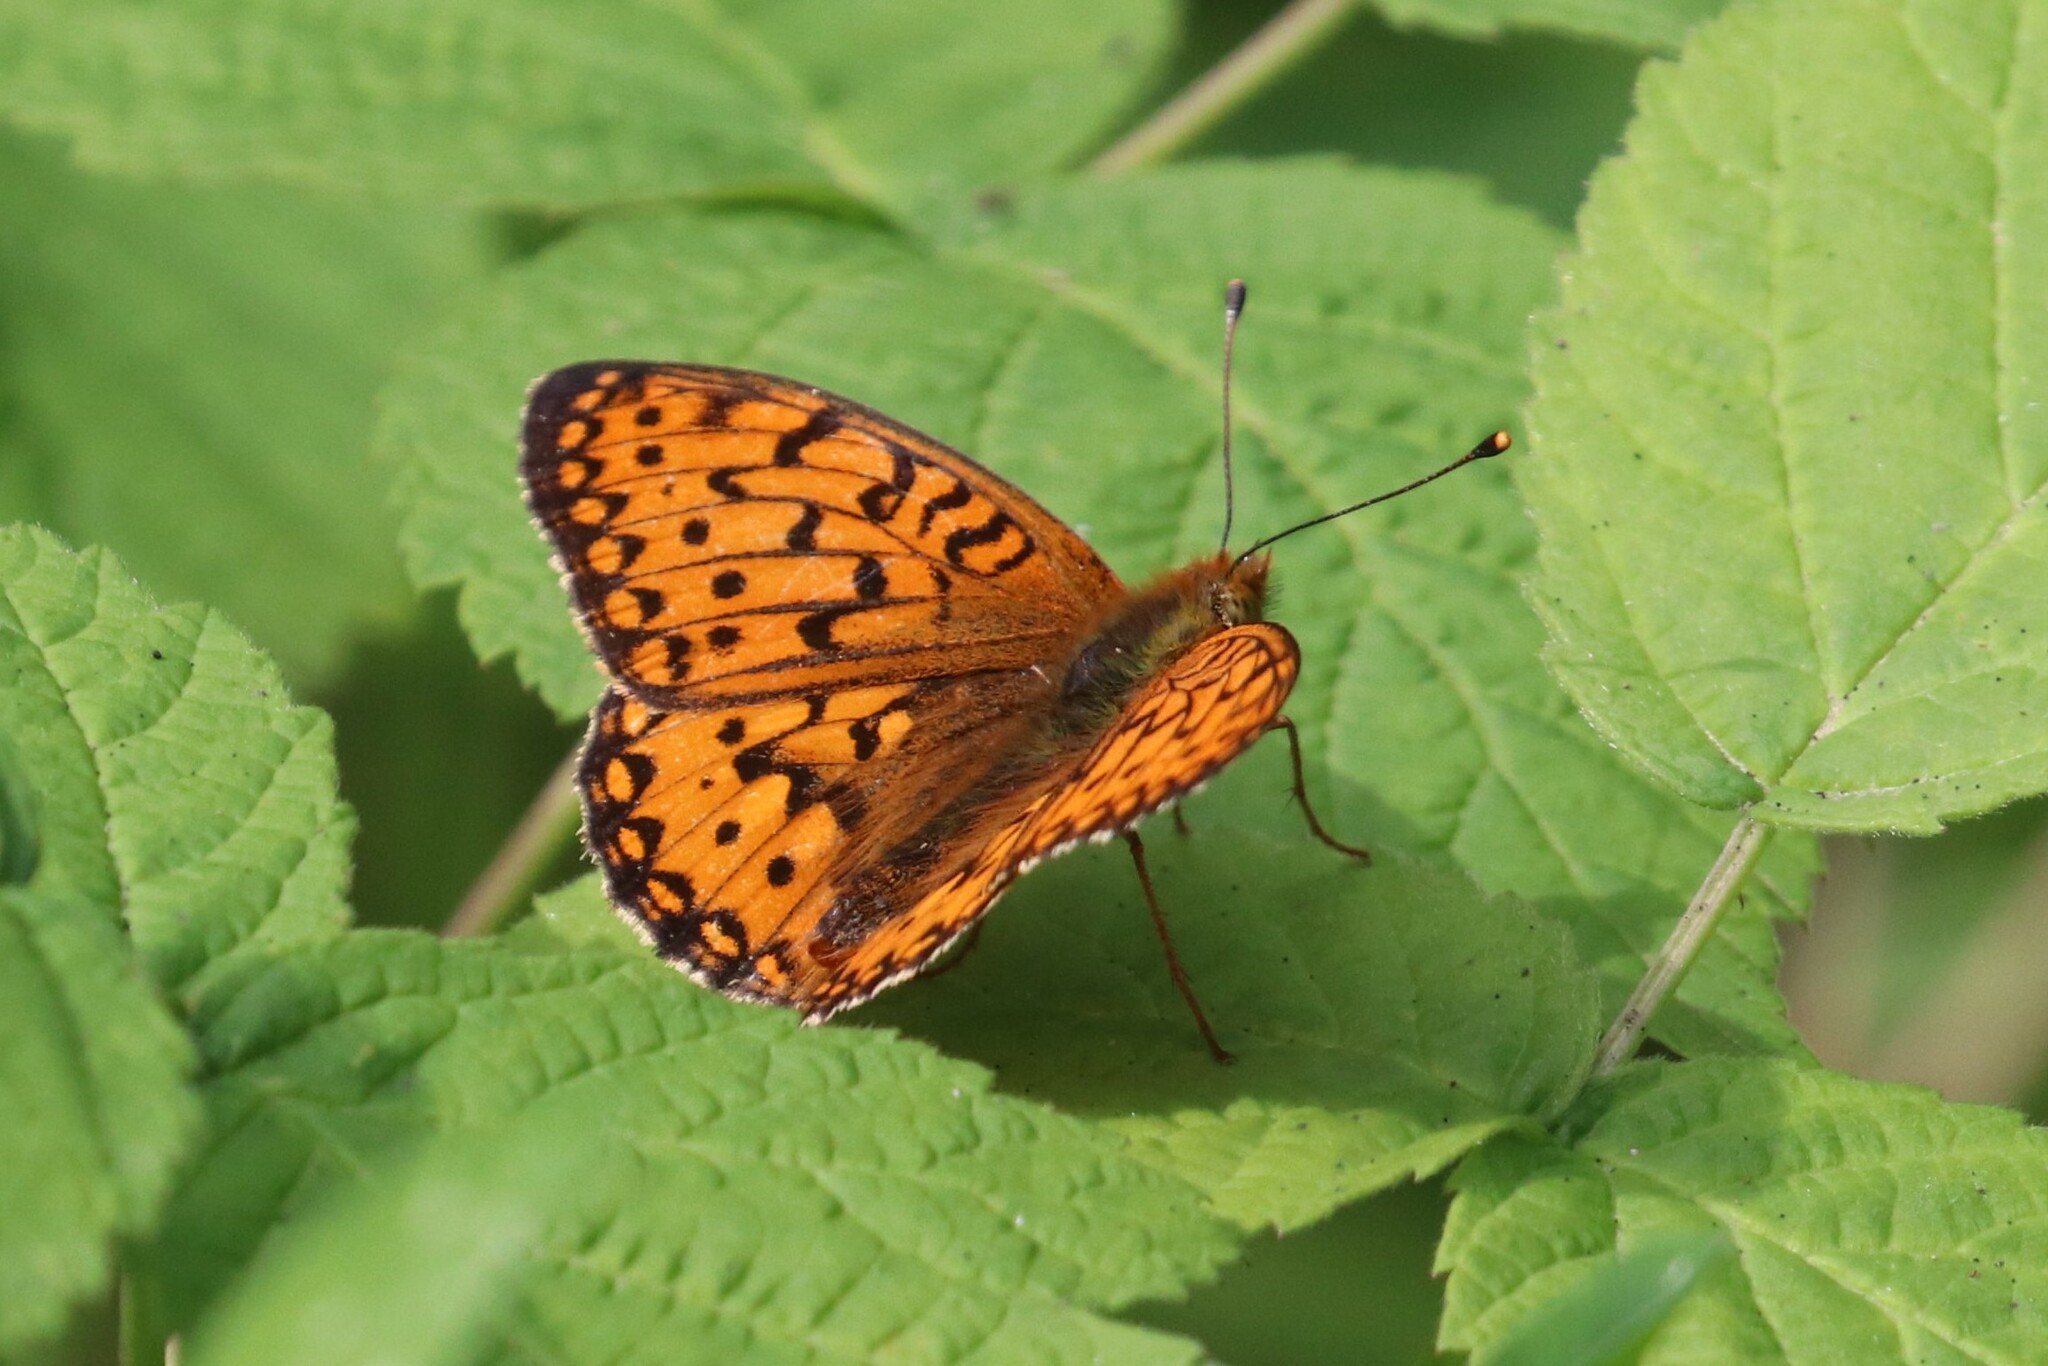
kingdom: Animalia
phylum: Arthropoda
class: Insecta
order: Lepidoptera
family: Nymphalidae
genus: Speyeria
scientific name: Speyeria aglaja
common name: Dark green fritillary
